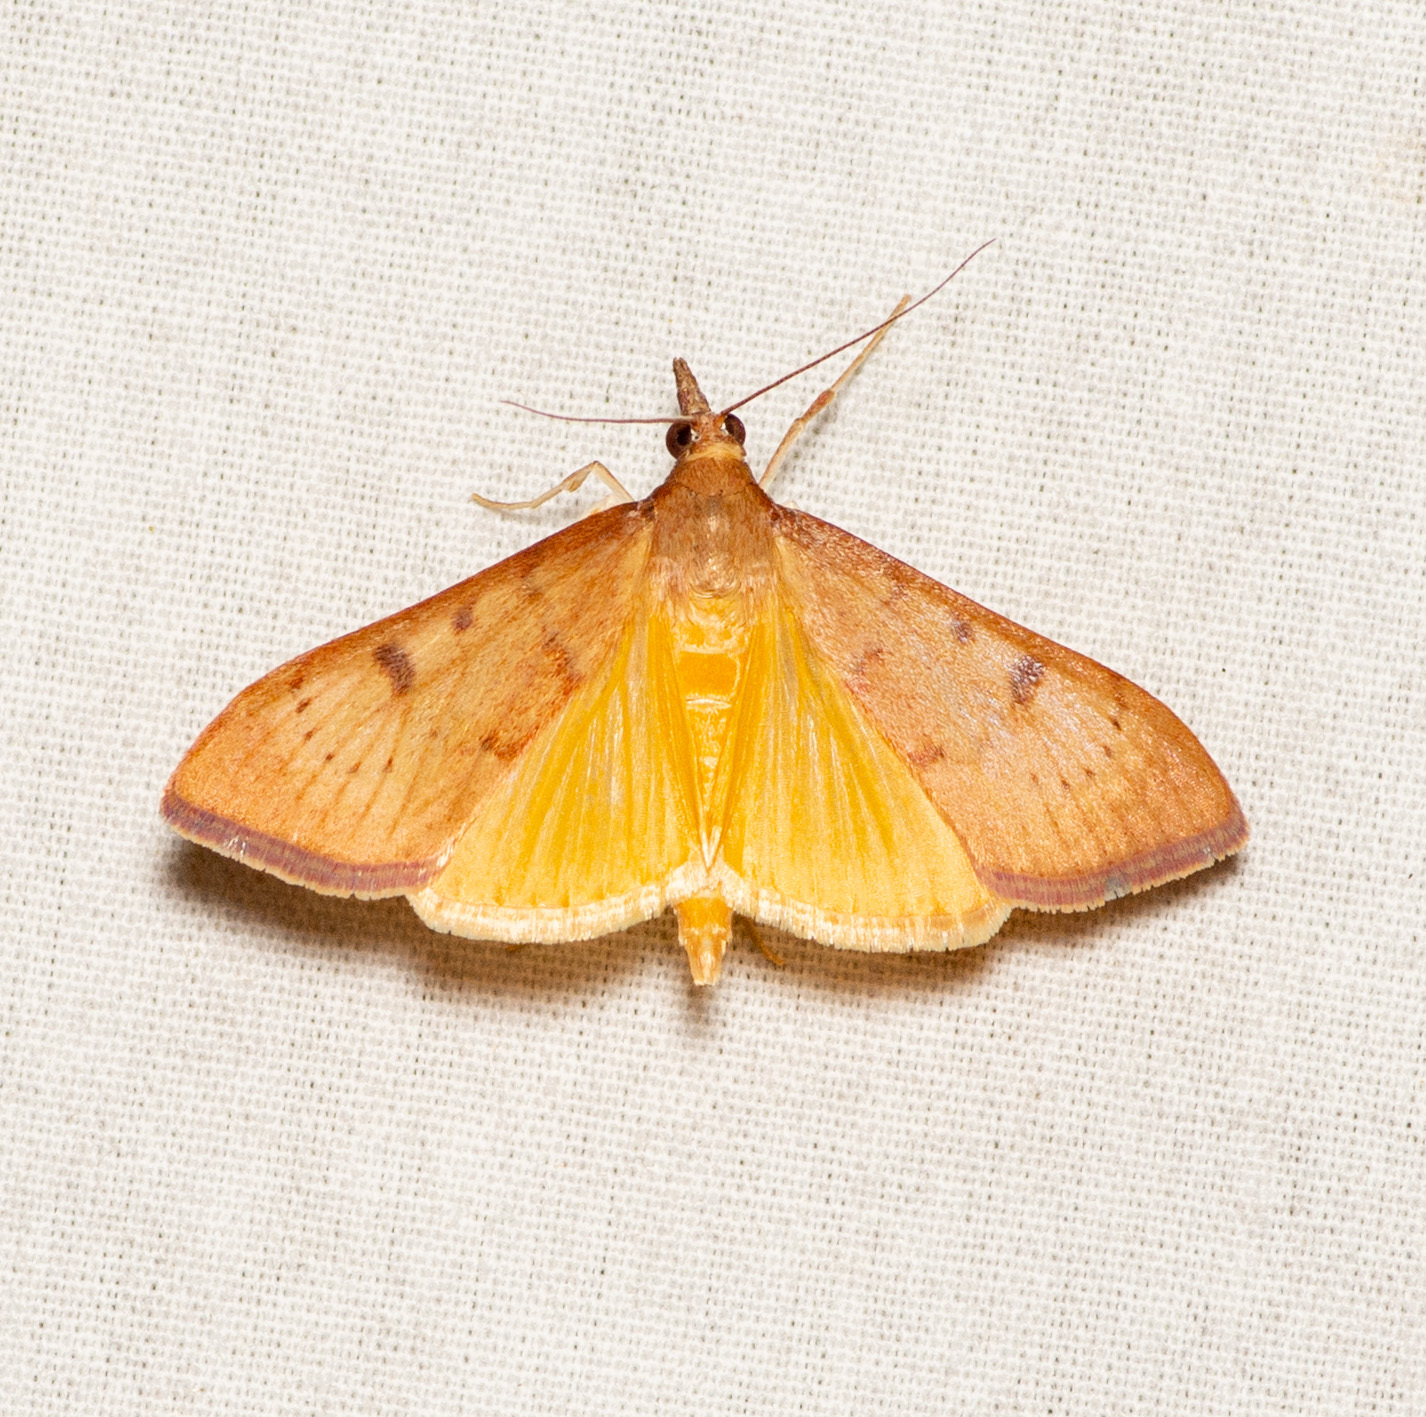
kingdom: Animalia
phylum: Arthropoda
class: Insecta
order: Lepidoptera
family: Crambidae
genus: Uresiphita
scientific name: Uresiphita reversalis
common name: Genista broom moth
